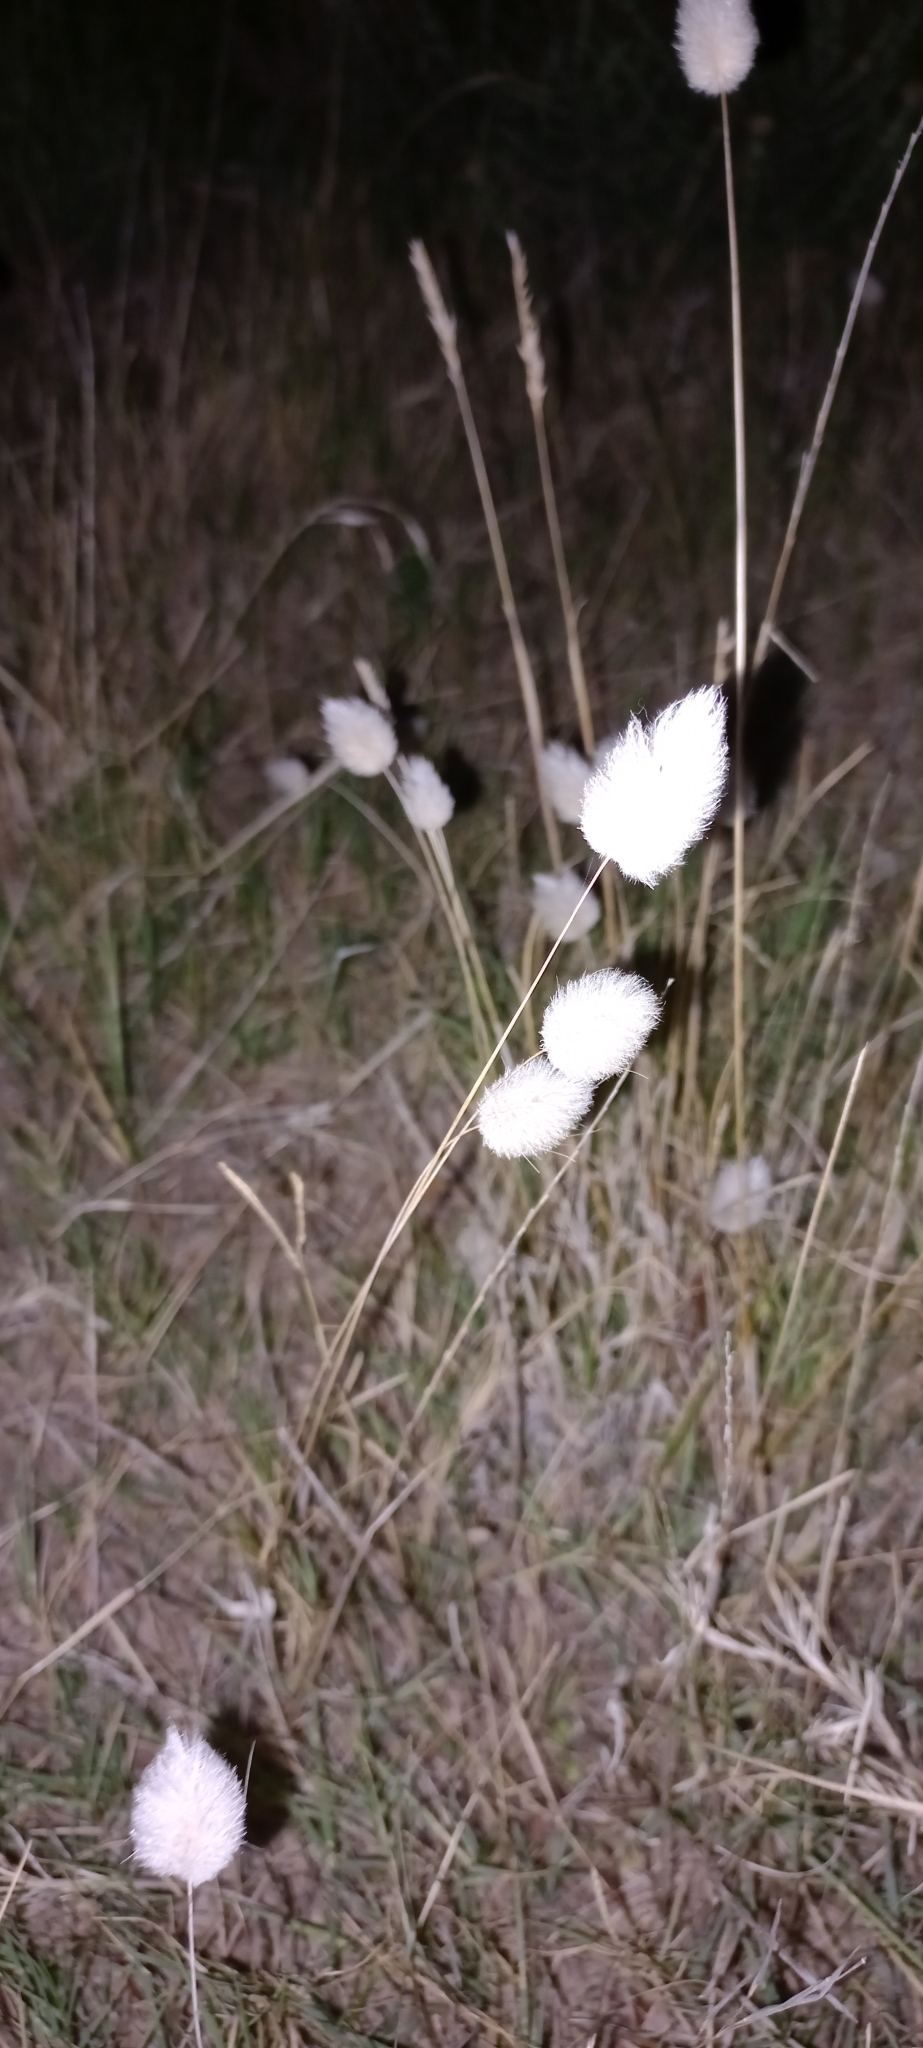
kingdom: Plantae
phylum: Tracheophyta
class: Liliopsida
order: Poales
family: Poaceae
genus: Lagurus
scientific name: Lagurus ovatus
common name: Hare's-tail
